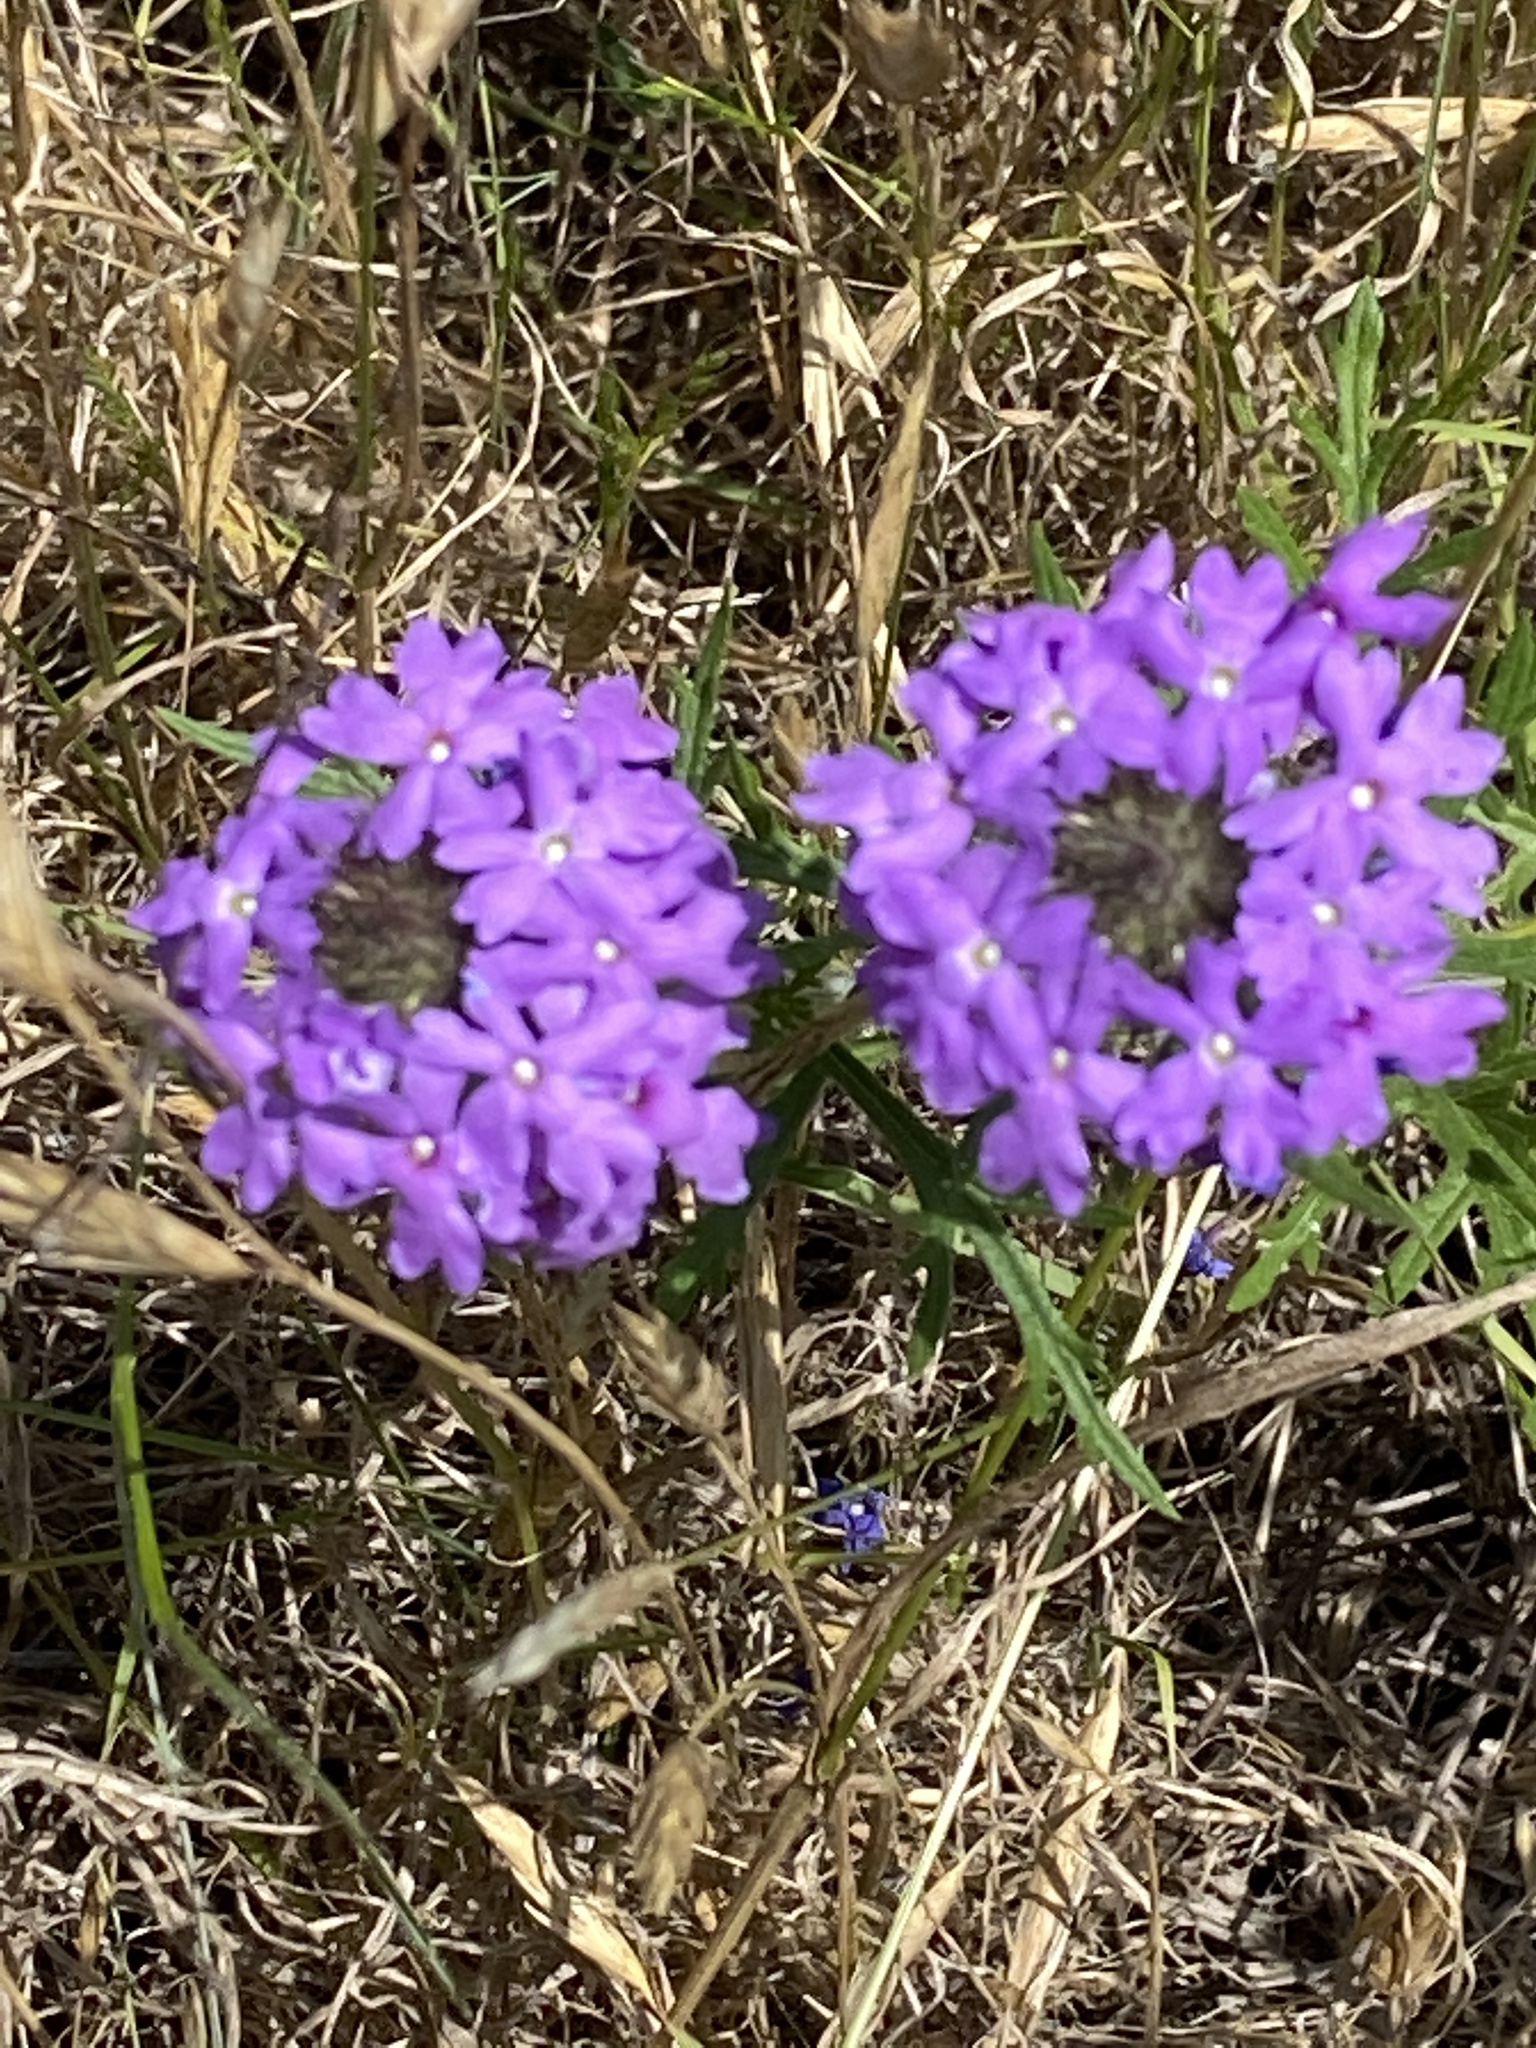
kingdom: Plantae
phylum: Tracheophyta
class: Magnoliopsida
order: Lamiales
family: Verbenaceae
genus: Verbena
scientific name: Verbena bipinnatifida
